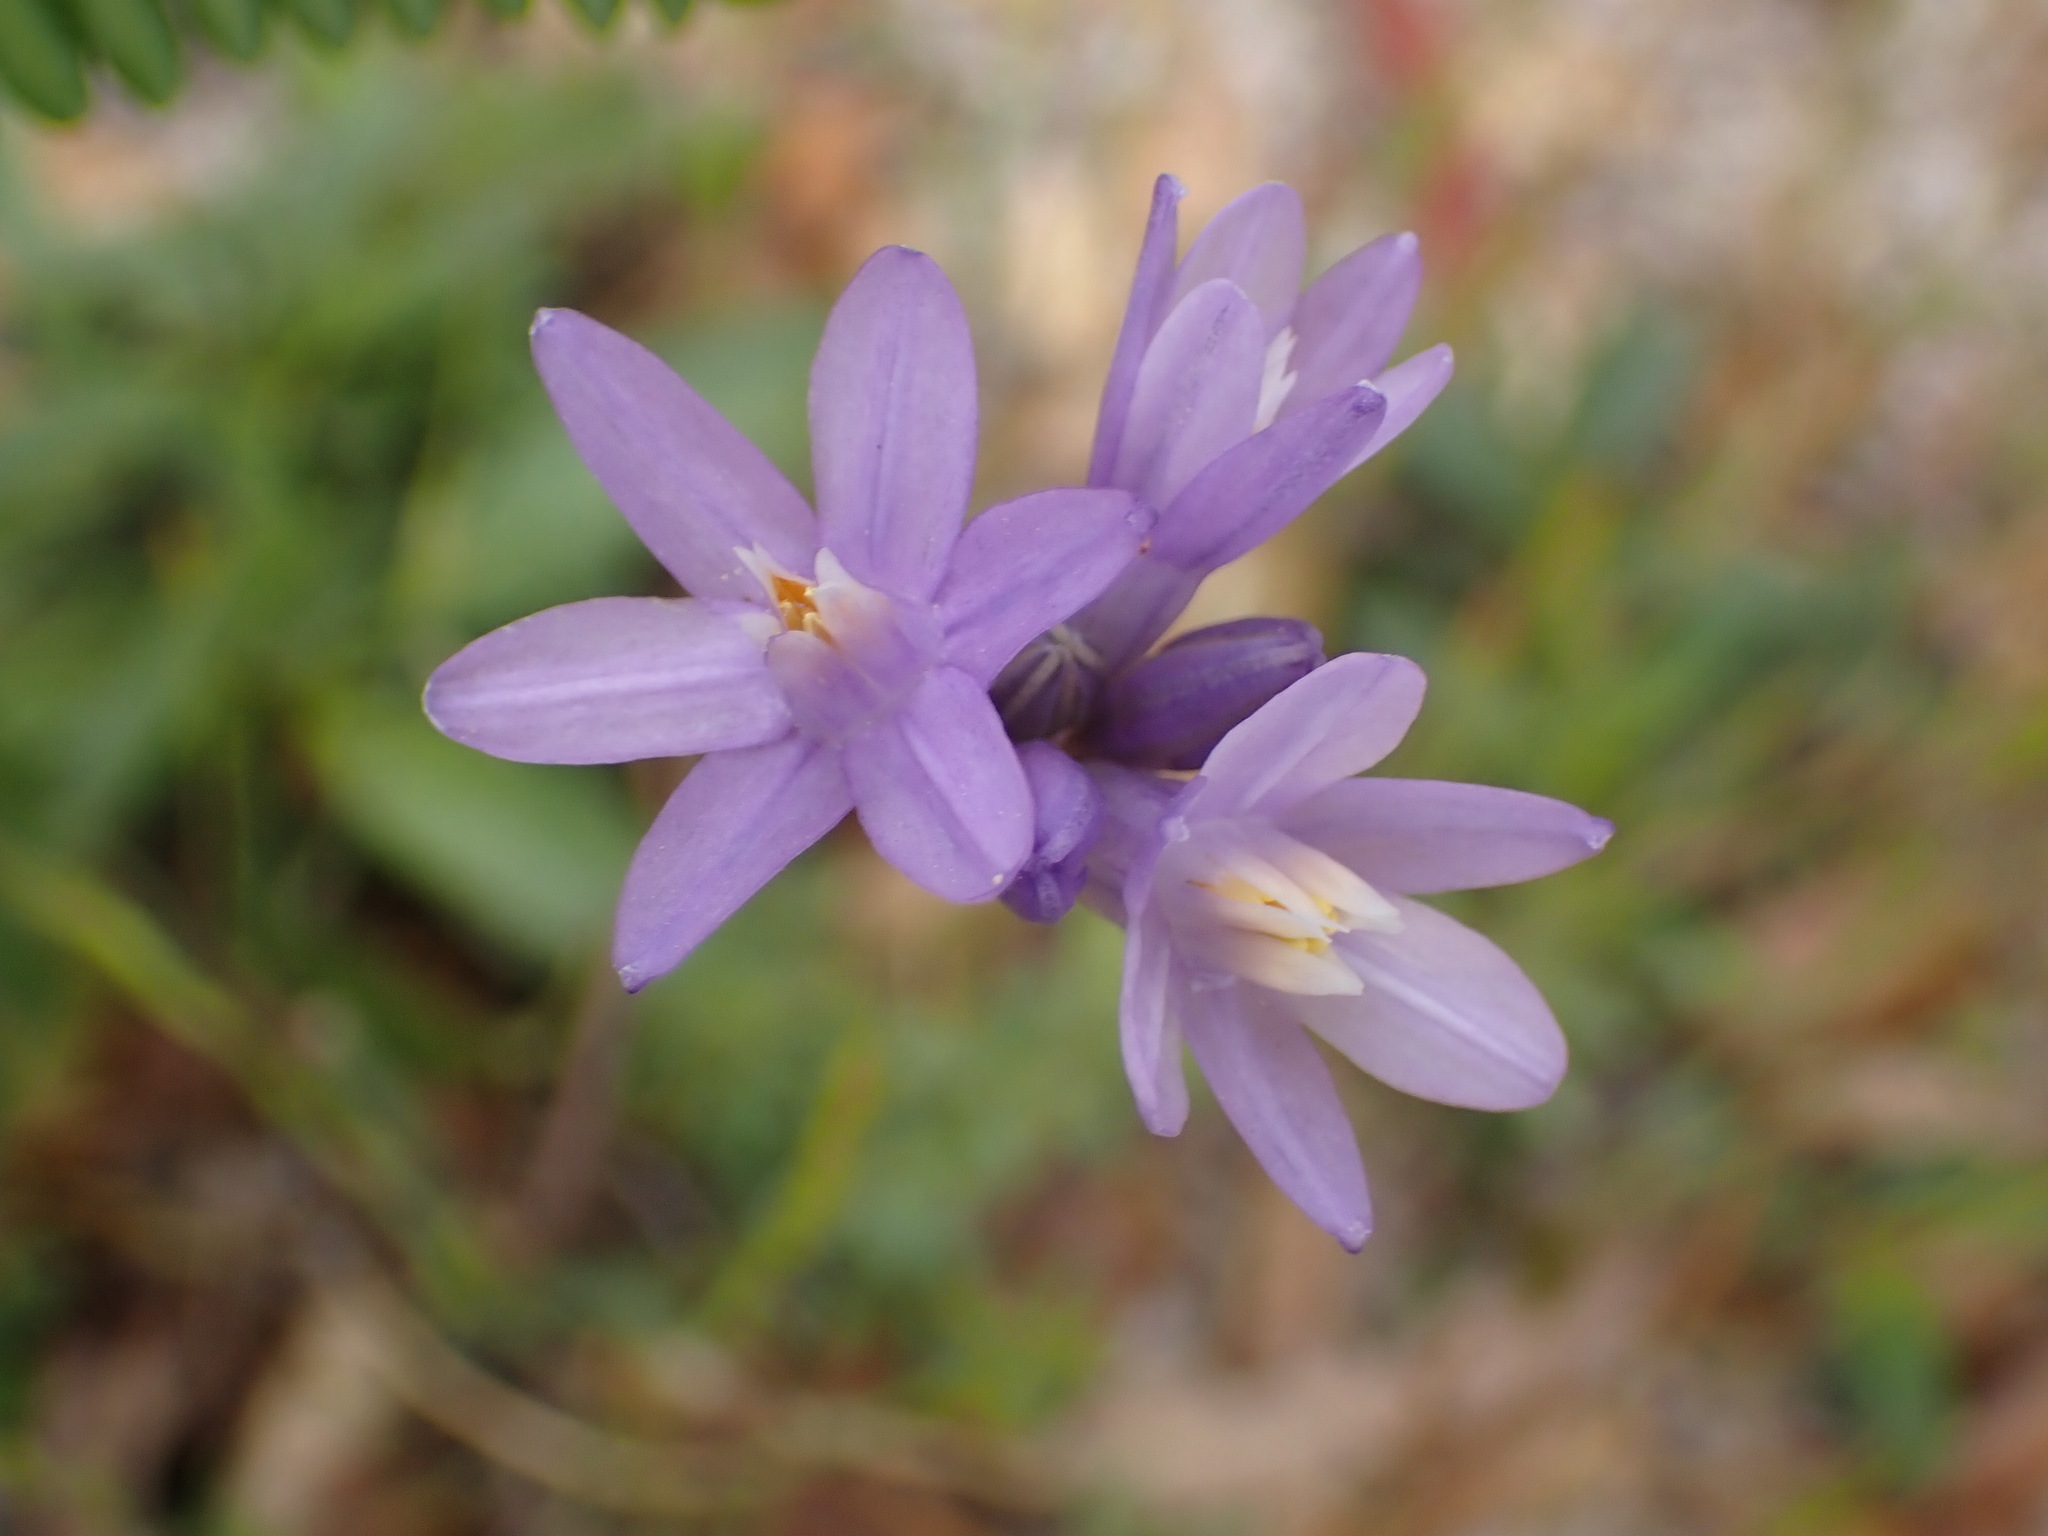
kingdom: Plantae
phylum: Tracheophyta
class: Liliopsida
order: Asparagales
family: Asparagaceae
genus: Dipterostemon
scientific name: Dipterostemon capitatus
